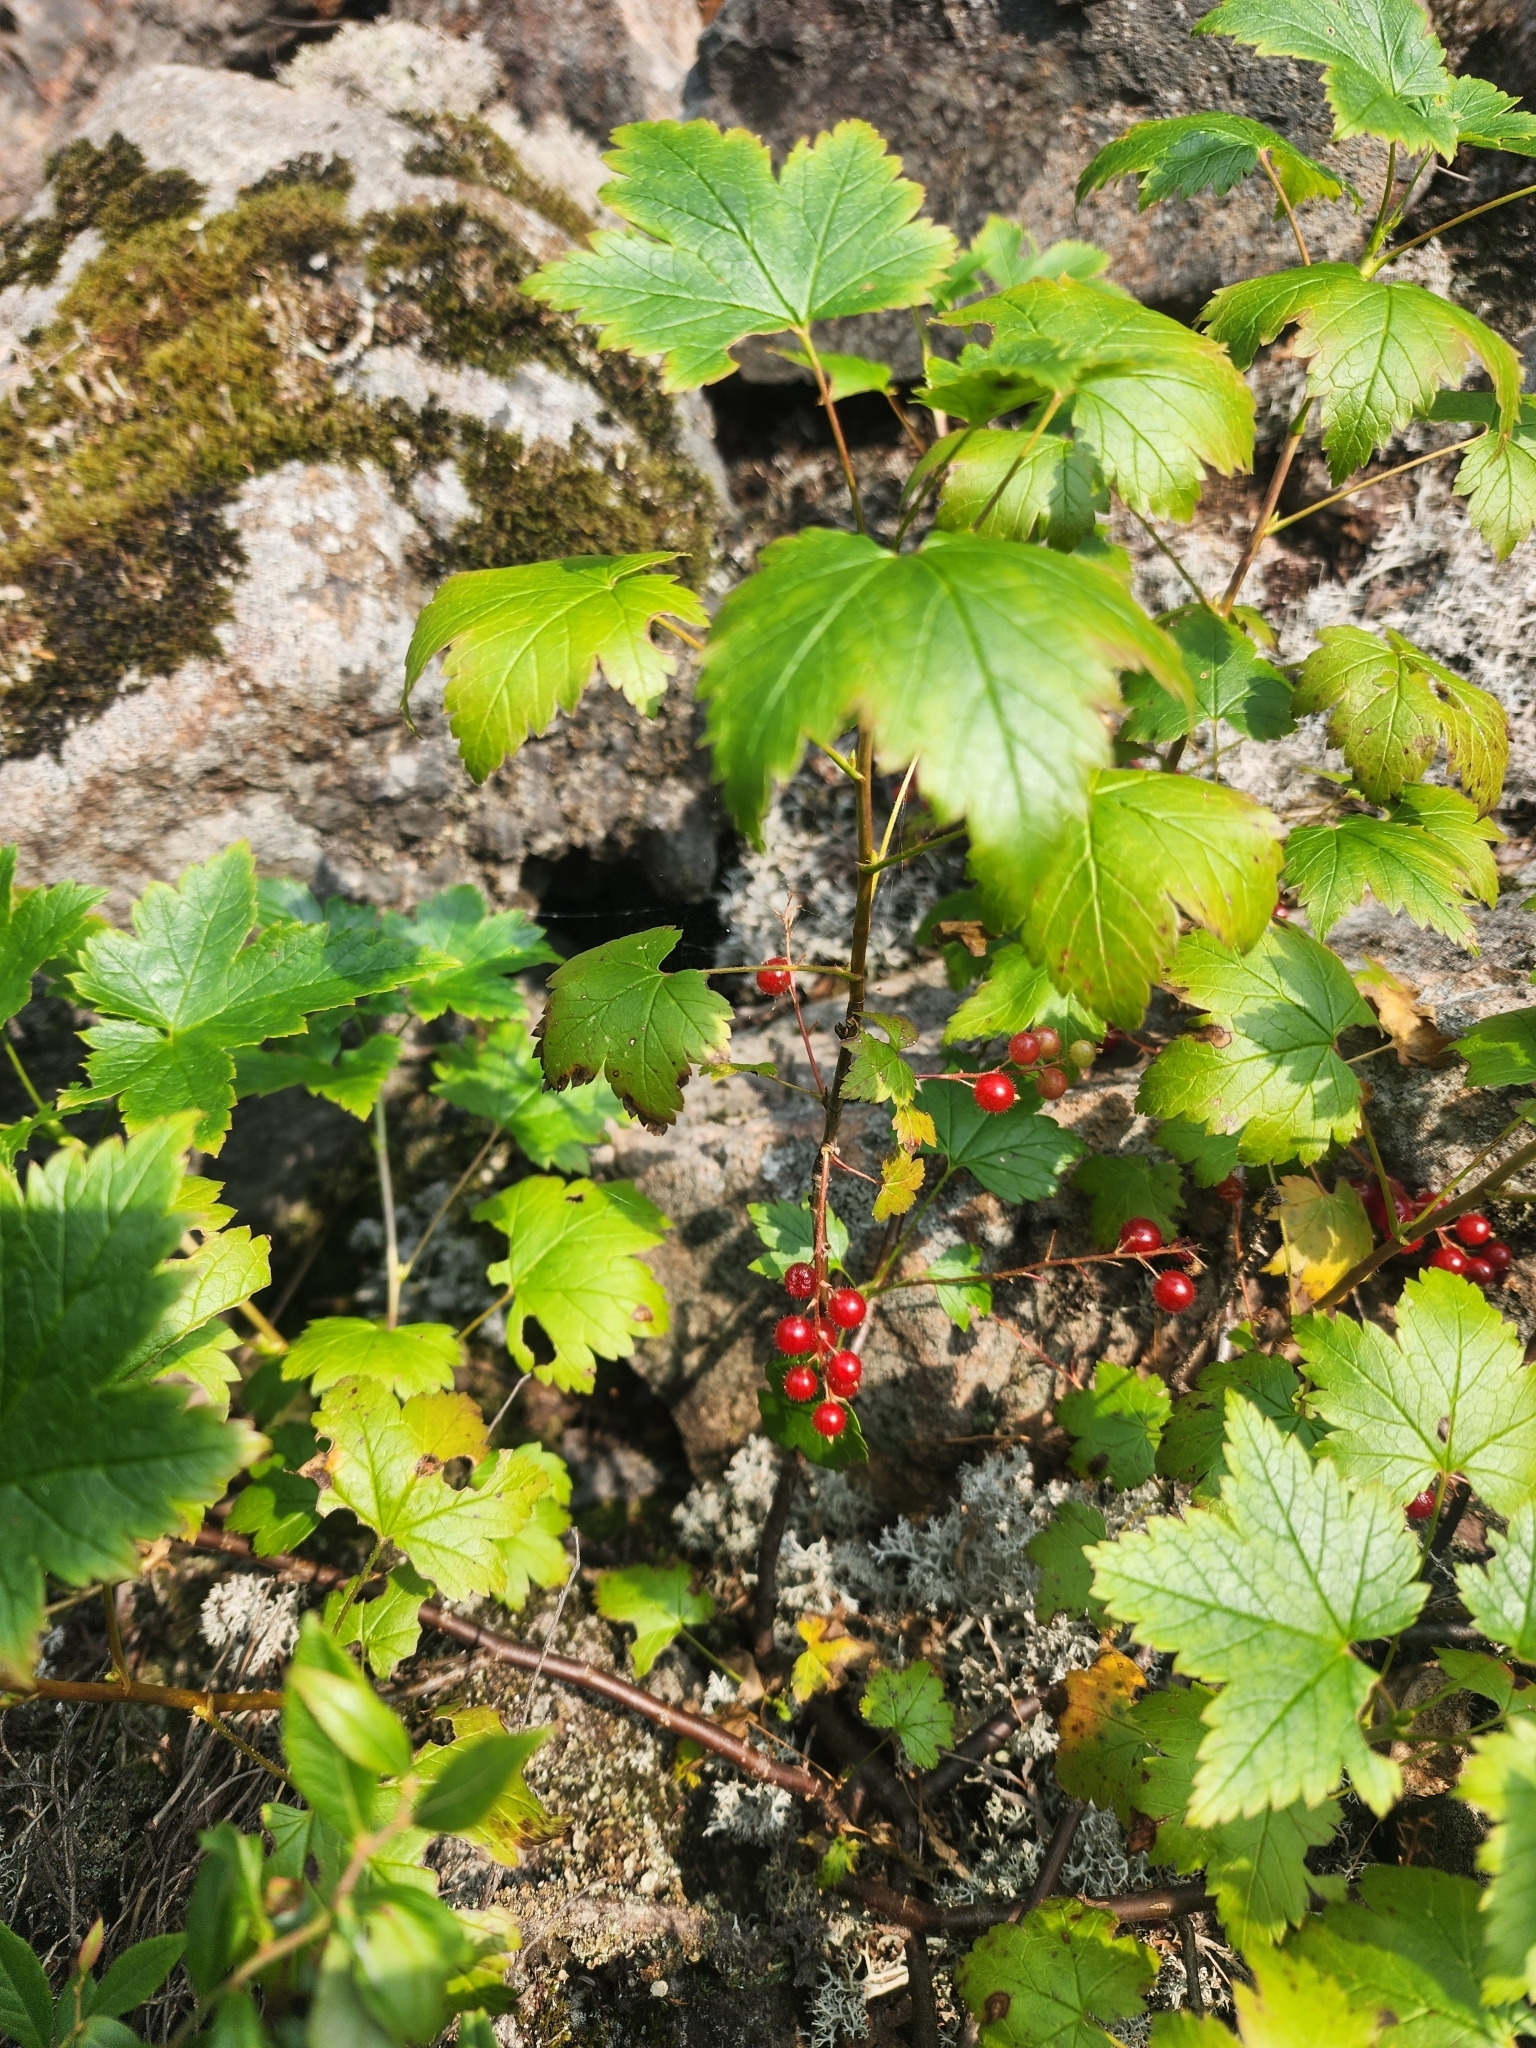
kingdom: Plantae
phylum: Tracheophyta
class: Magnoliopsida
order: Saxifragales
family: Grossulariaceae
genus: Ribes
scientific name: Ribes glandulosum
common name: Skunk currant
